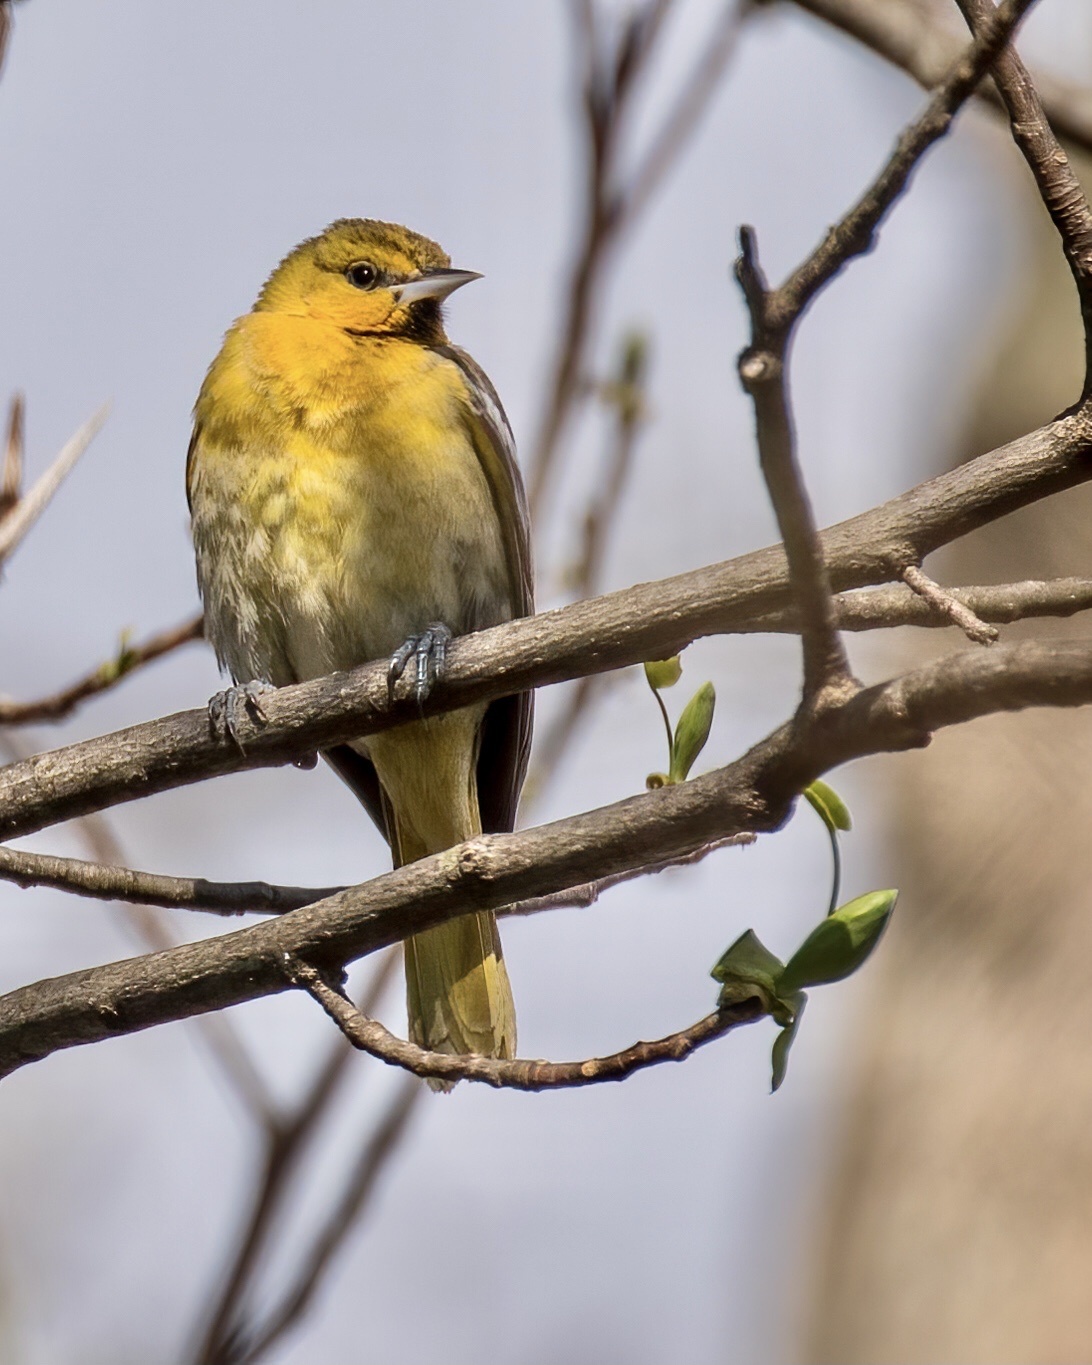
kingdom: Animalia
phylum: Chordata
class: Aves
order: Passeriformes
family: Icteridae
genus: Icterus
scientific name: Icterus bullockii
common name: Bullock's oriole
